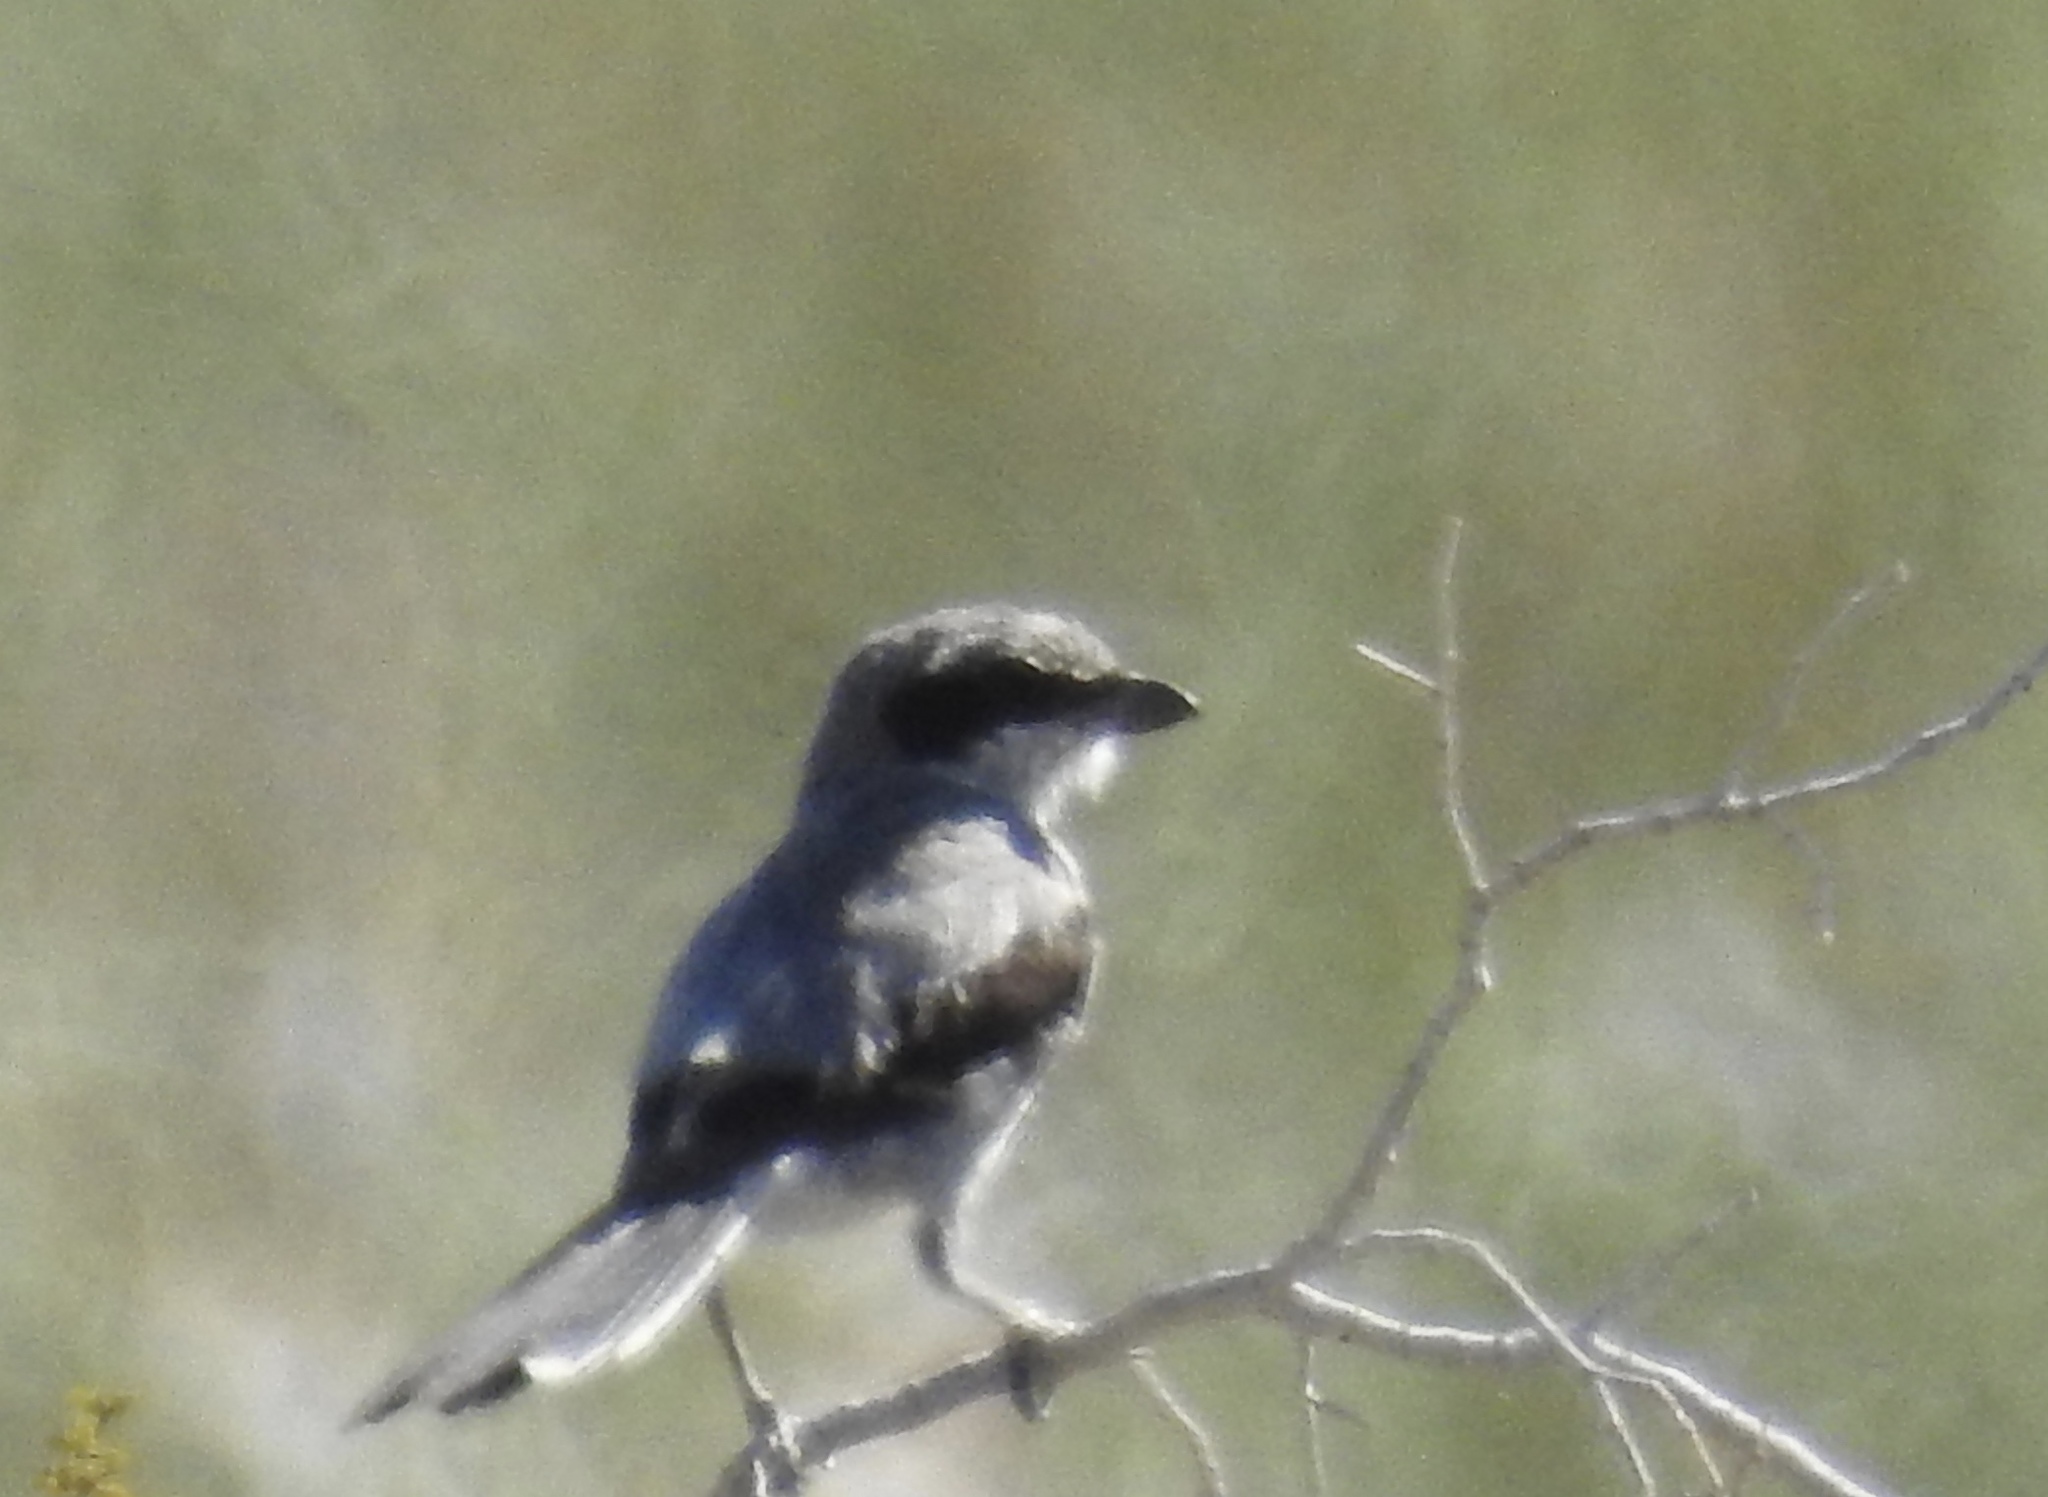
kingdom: Animalia
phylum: Chordata
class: Aves
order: Passeriformes
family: Laniidae
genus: Lanius
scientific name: Lanius ludovicianus
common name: Loggerhead shrike
